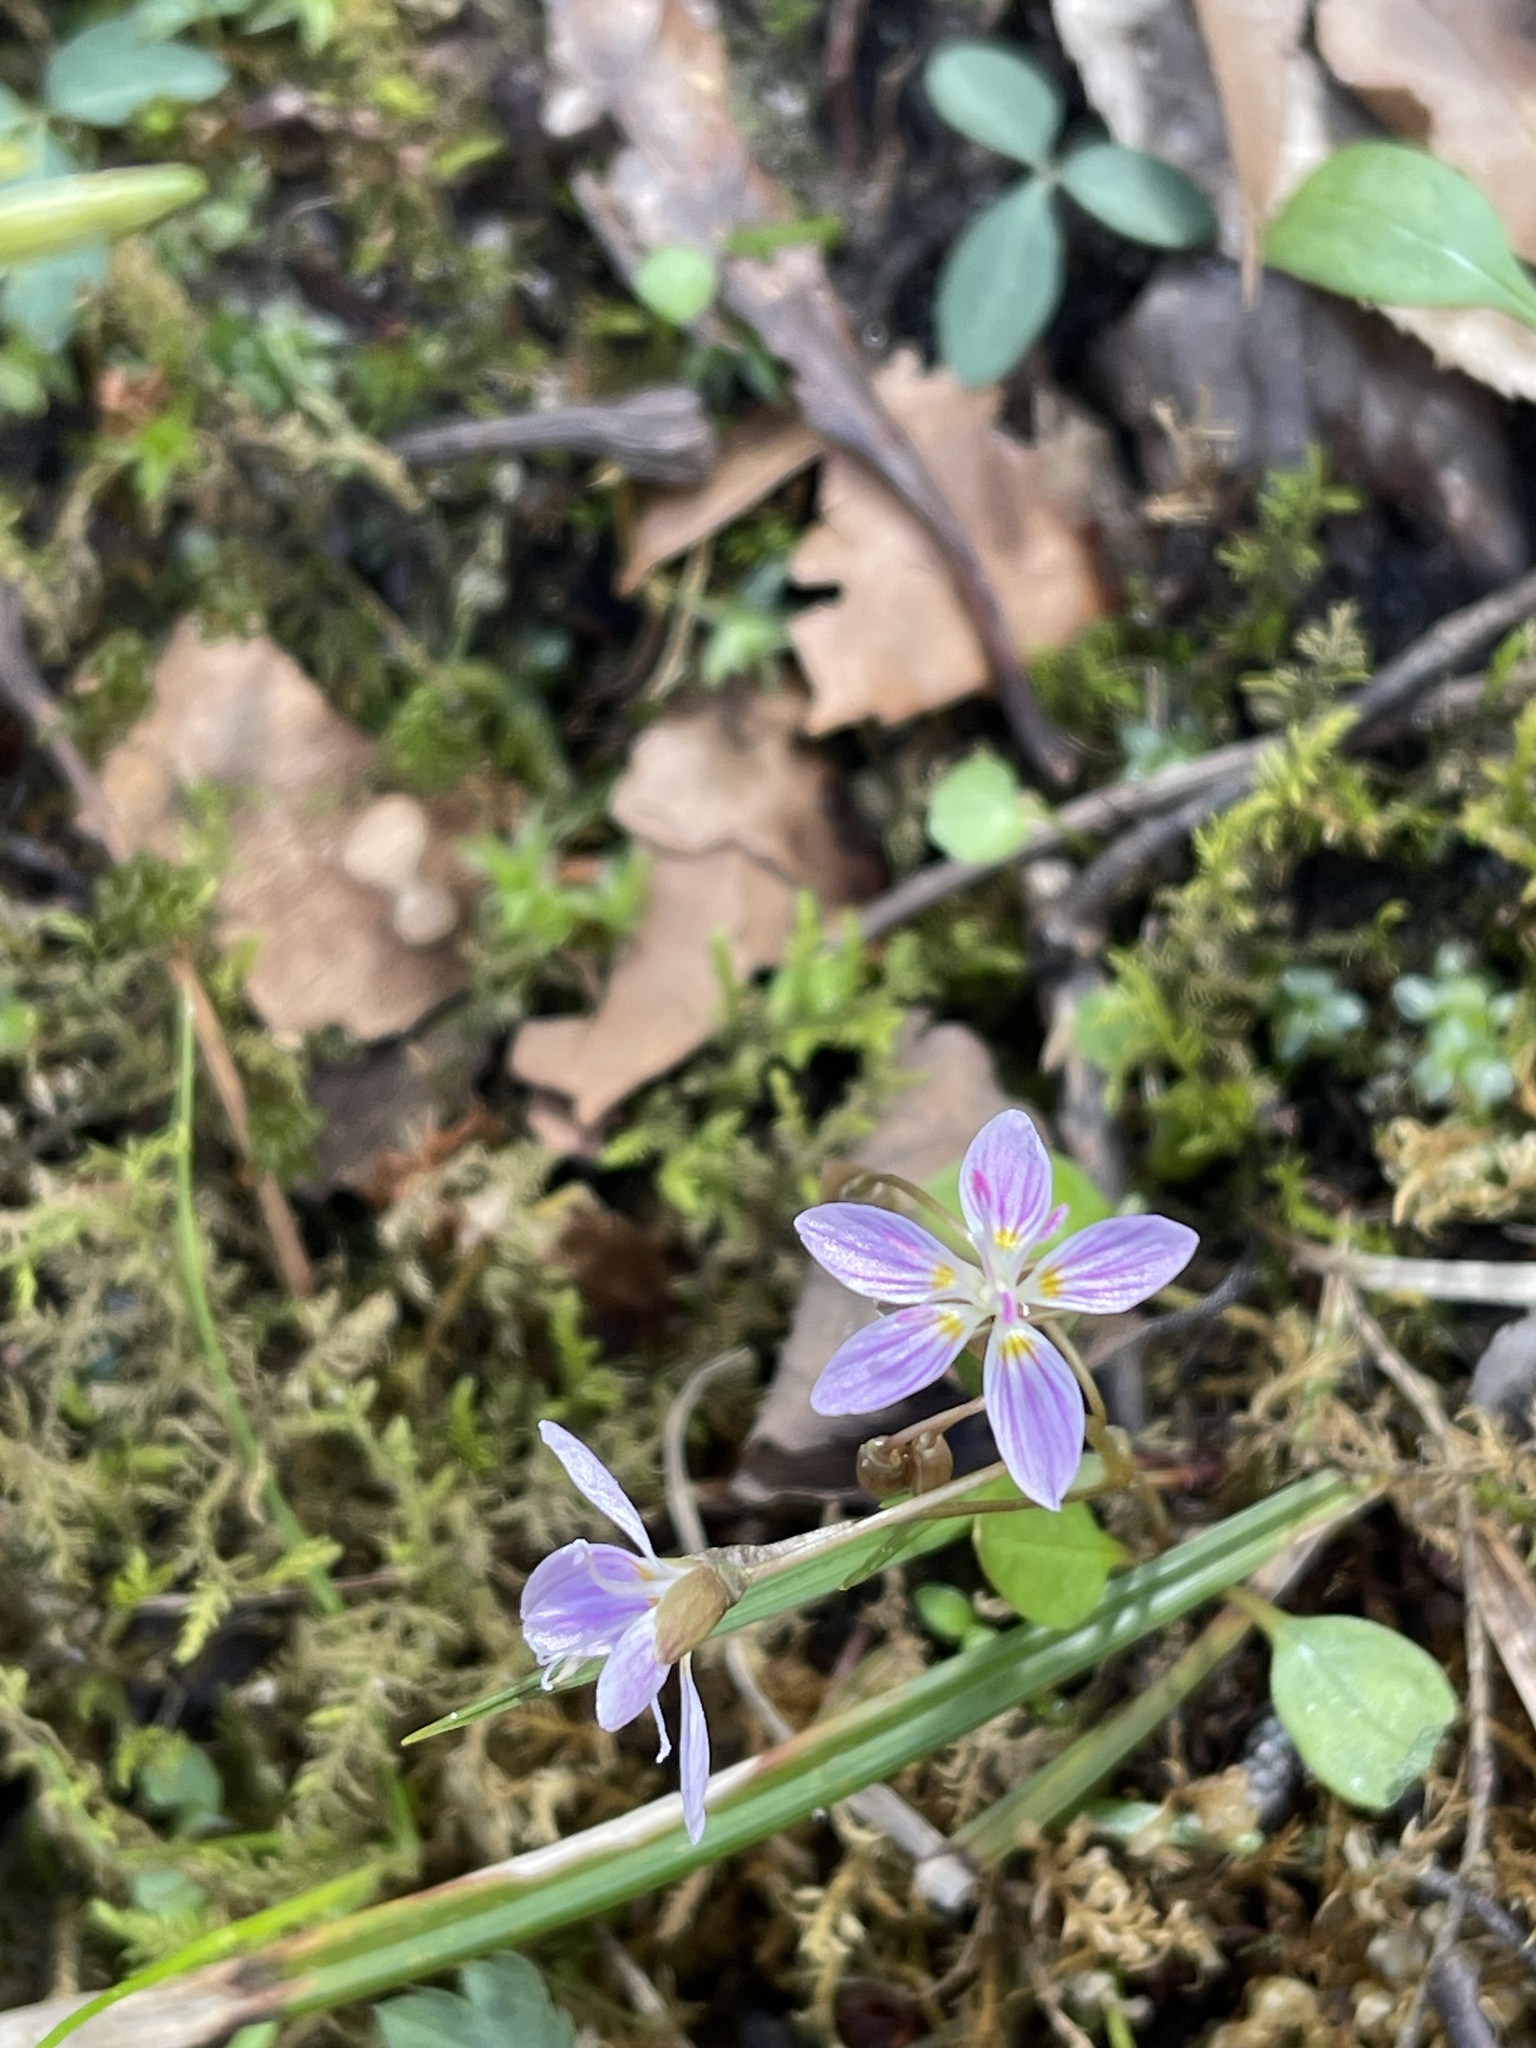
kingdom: Plantae
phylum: Tracheophyta
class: Magnoliopsida
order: Caryophyllales
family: Montiaceae
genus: Claytonia
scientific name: Claytonia virginica
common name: Virginia springbeauty
